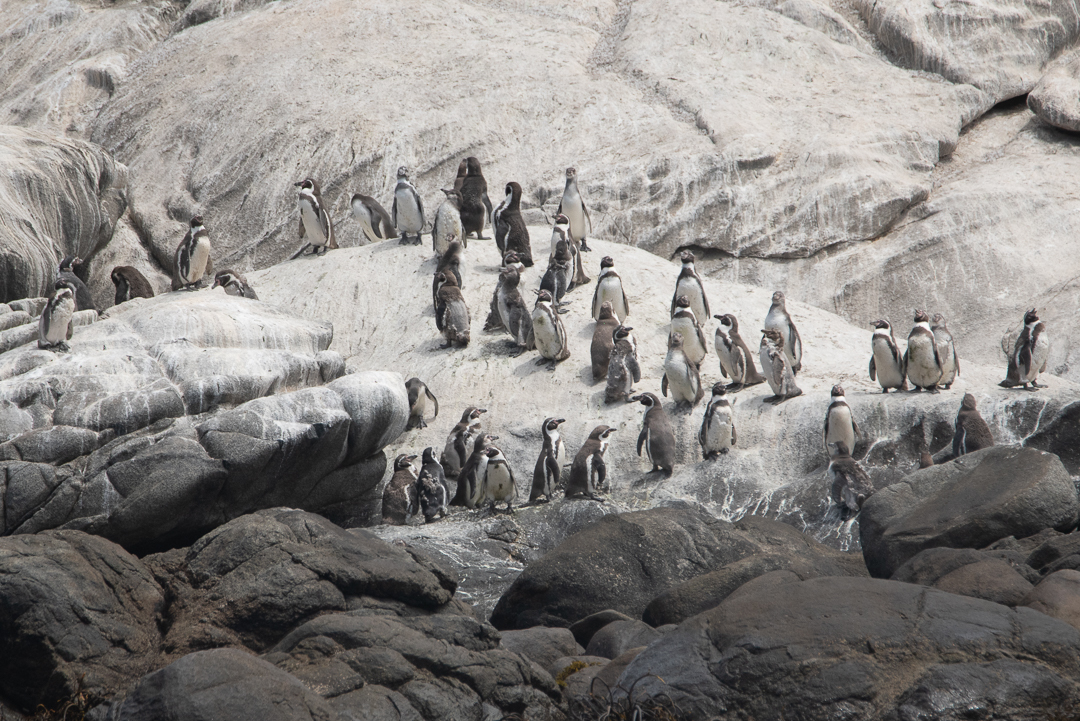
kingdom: Animalia
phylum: Chordata
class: Aves
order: Sphenisciformes
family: Spheniscidae
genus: Spheniscus
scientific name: Spheniscus humboldti
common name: Humboldt penguin
